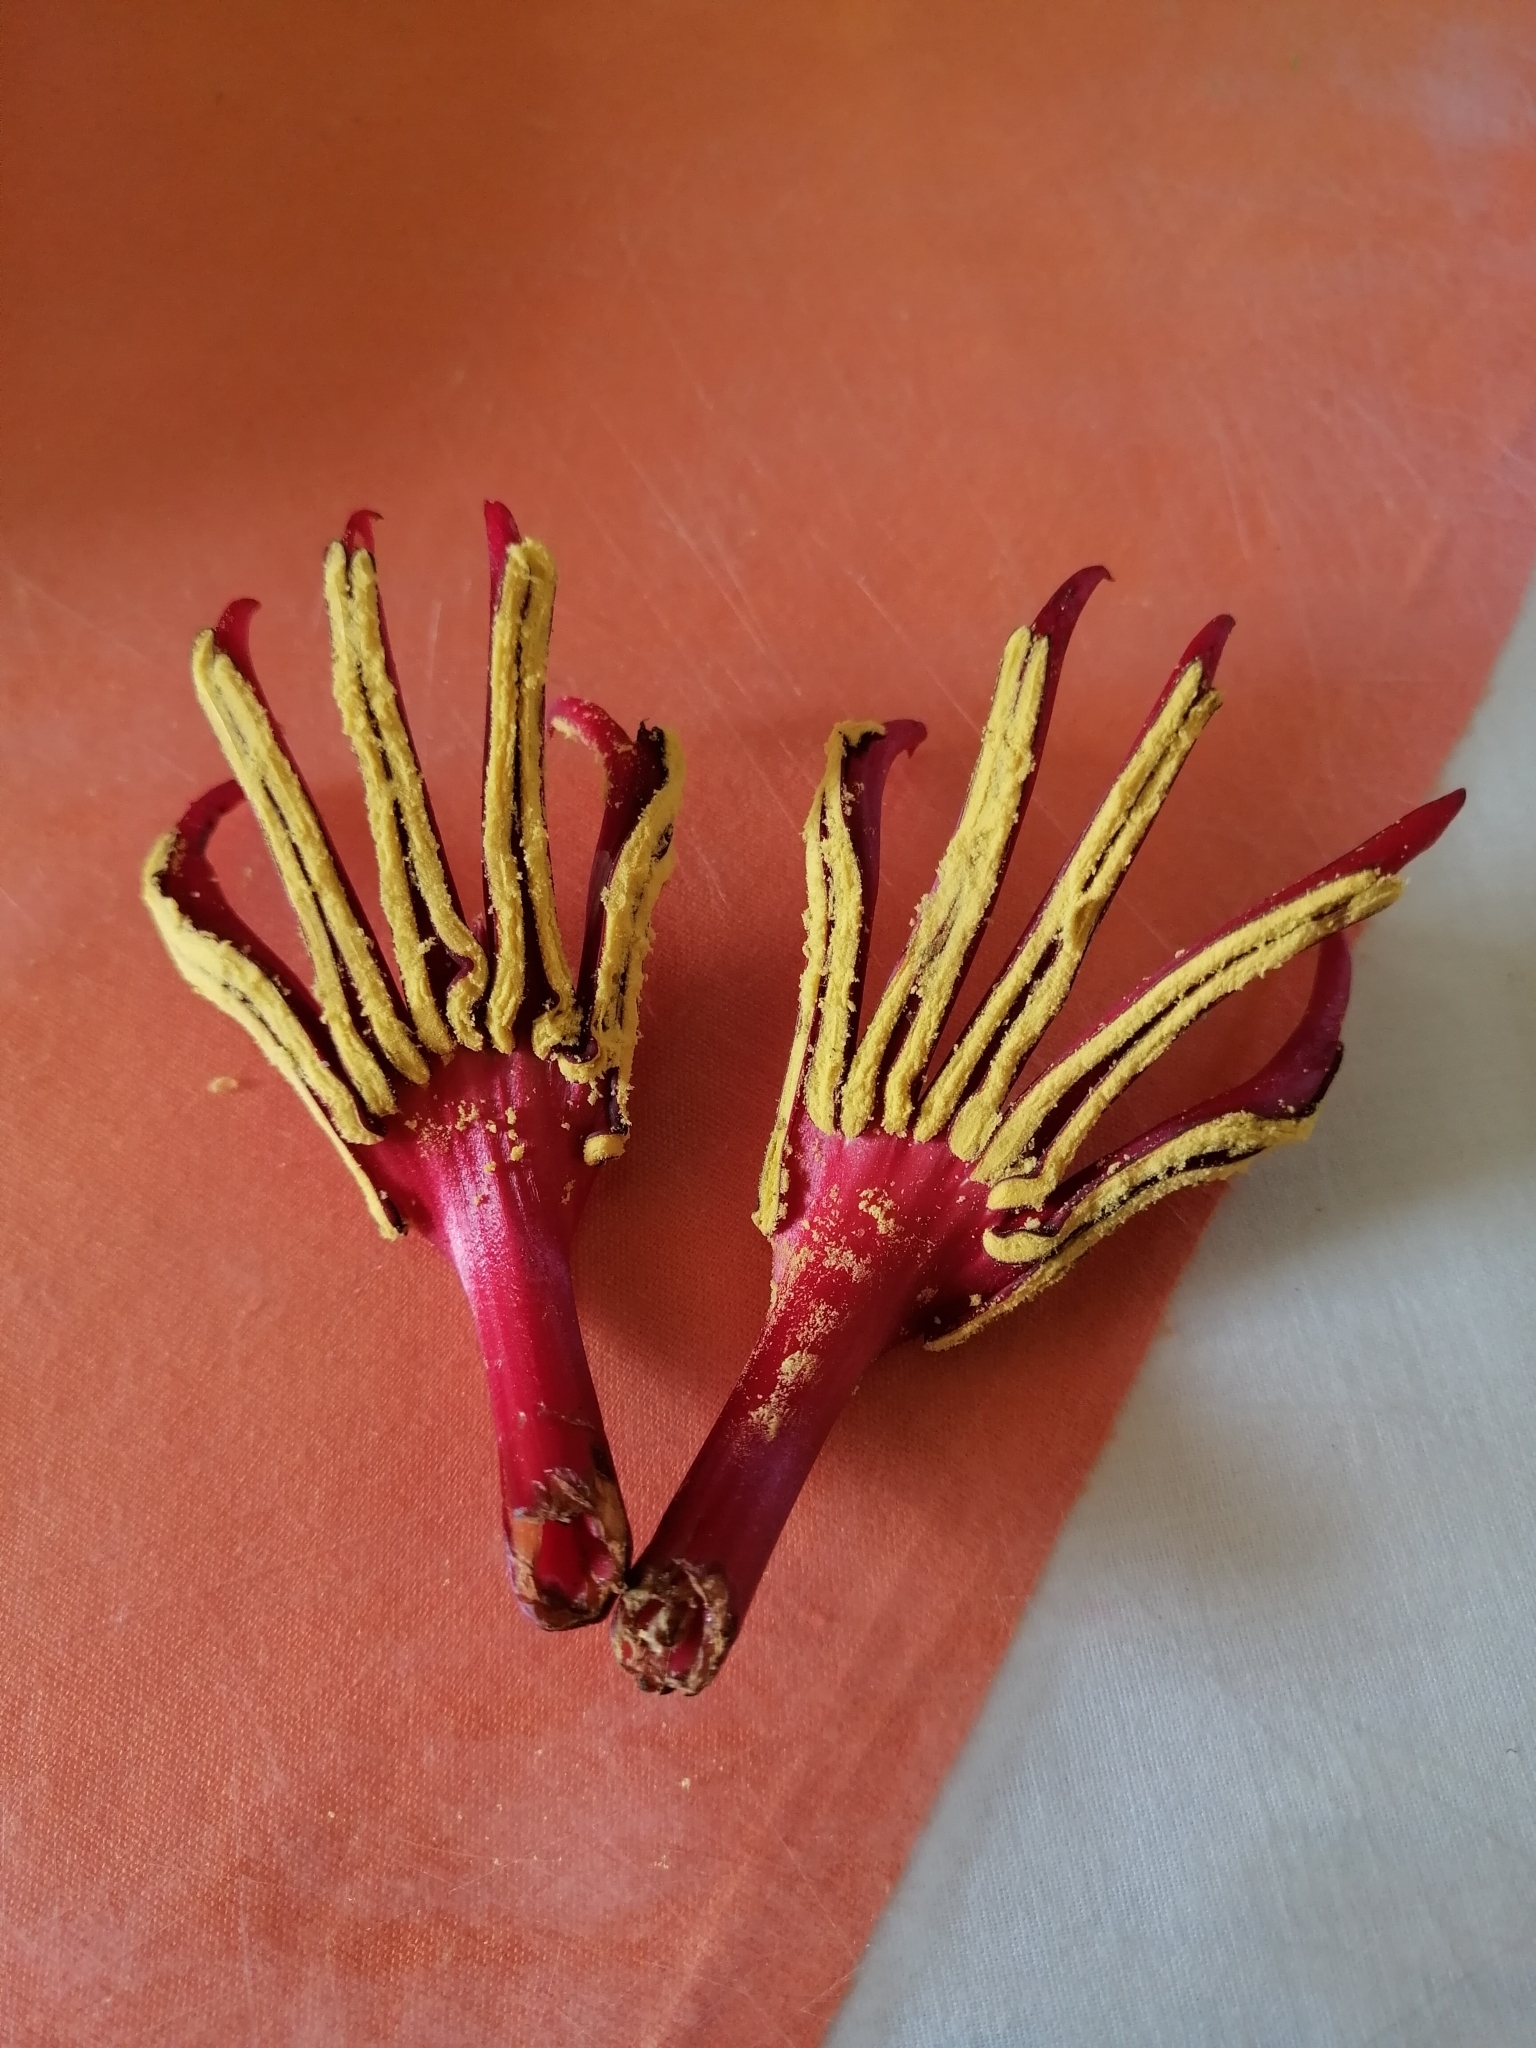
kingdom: Plantae
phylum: Tracheophyta
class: Magnoliopsida
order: Malvales
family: Malvaceae
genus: Chiranthodendron
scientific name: Chiranthodendron pentadactylon
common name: Mexican-hat-plant
